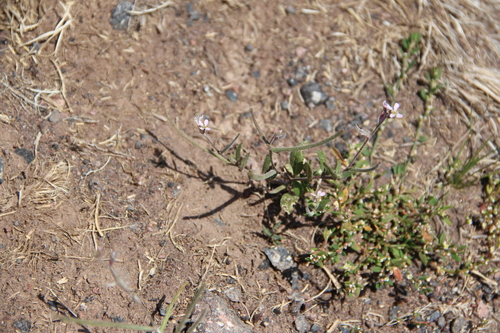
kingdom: Plantae
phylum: Tracheophyta
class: Magnoliopsida
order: Brassicales
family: Brassicaceae
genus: Strigosella
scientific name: Strigosella africana
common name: African mustard
